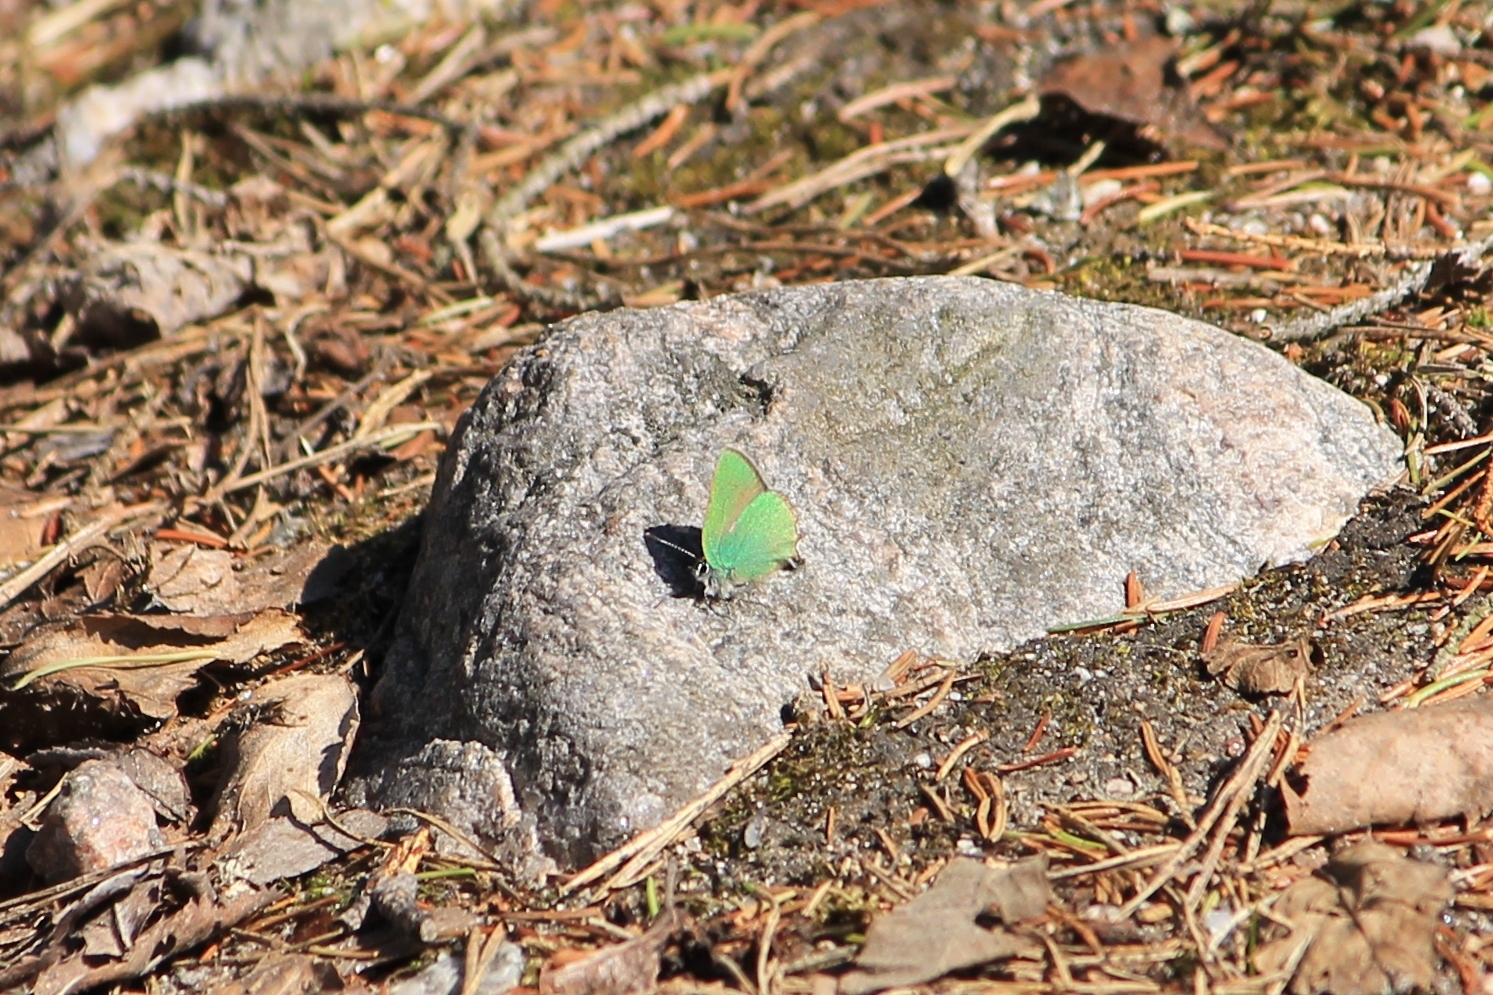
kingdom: Animalia
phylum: Arthropoda
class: Insecta
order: Lepidoptera
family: Lycaenidae
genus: Callophrys
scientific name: Callophrys rubi
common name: Green hairstreak
